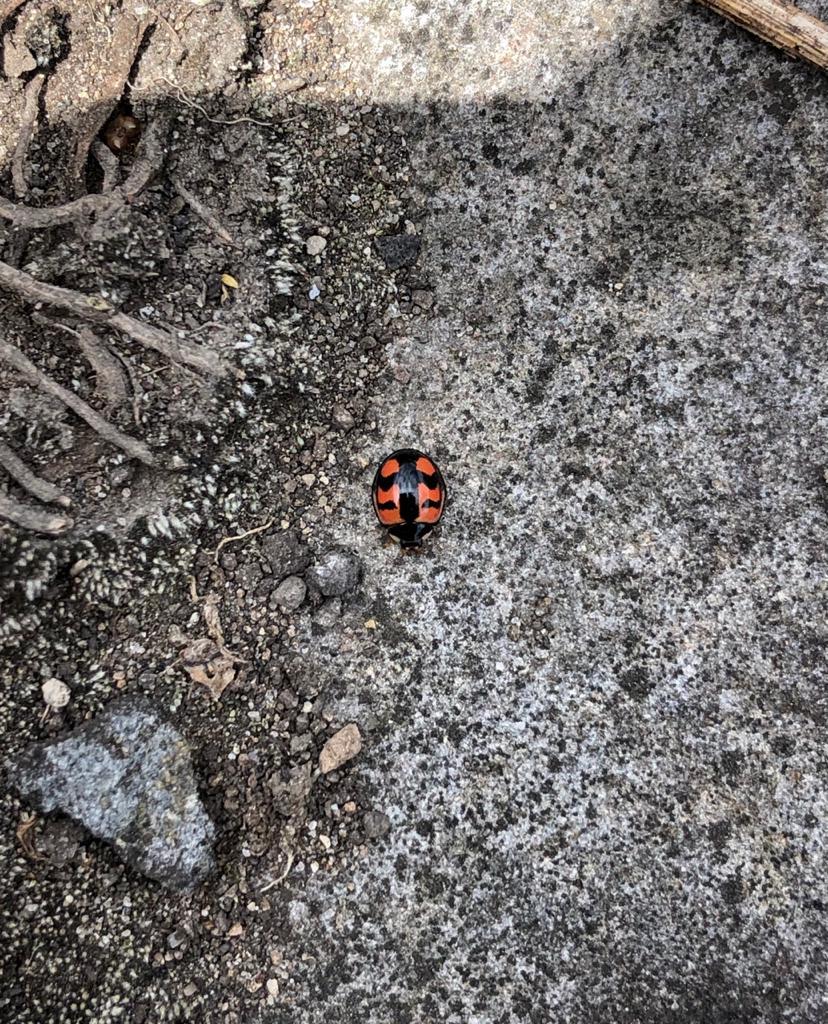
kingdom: Animalia
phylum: Arthropoda
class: Insecta
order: Coleoptera
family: Coccinellidae
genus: Cheilomenes
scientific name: Cheilomenes sexmaculata
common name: Ladybird beetle
